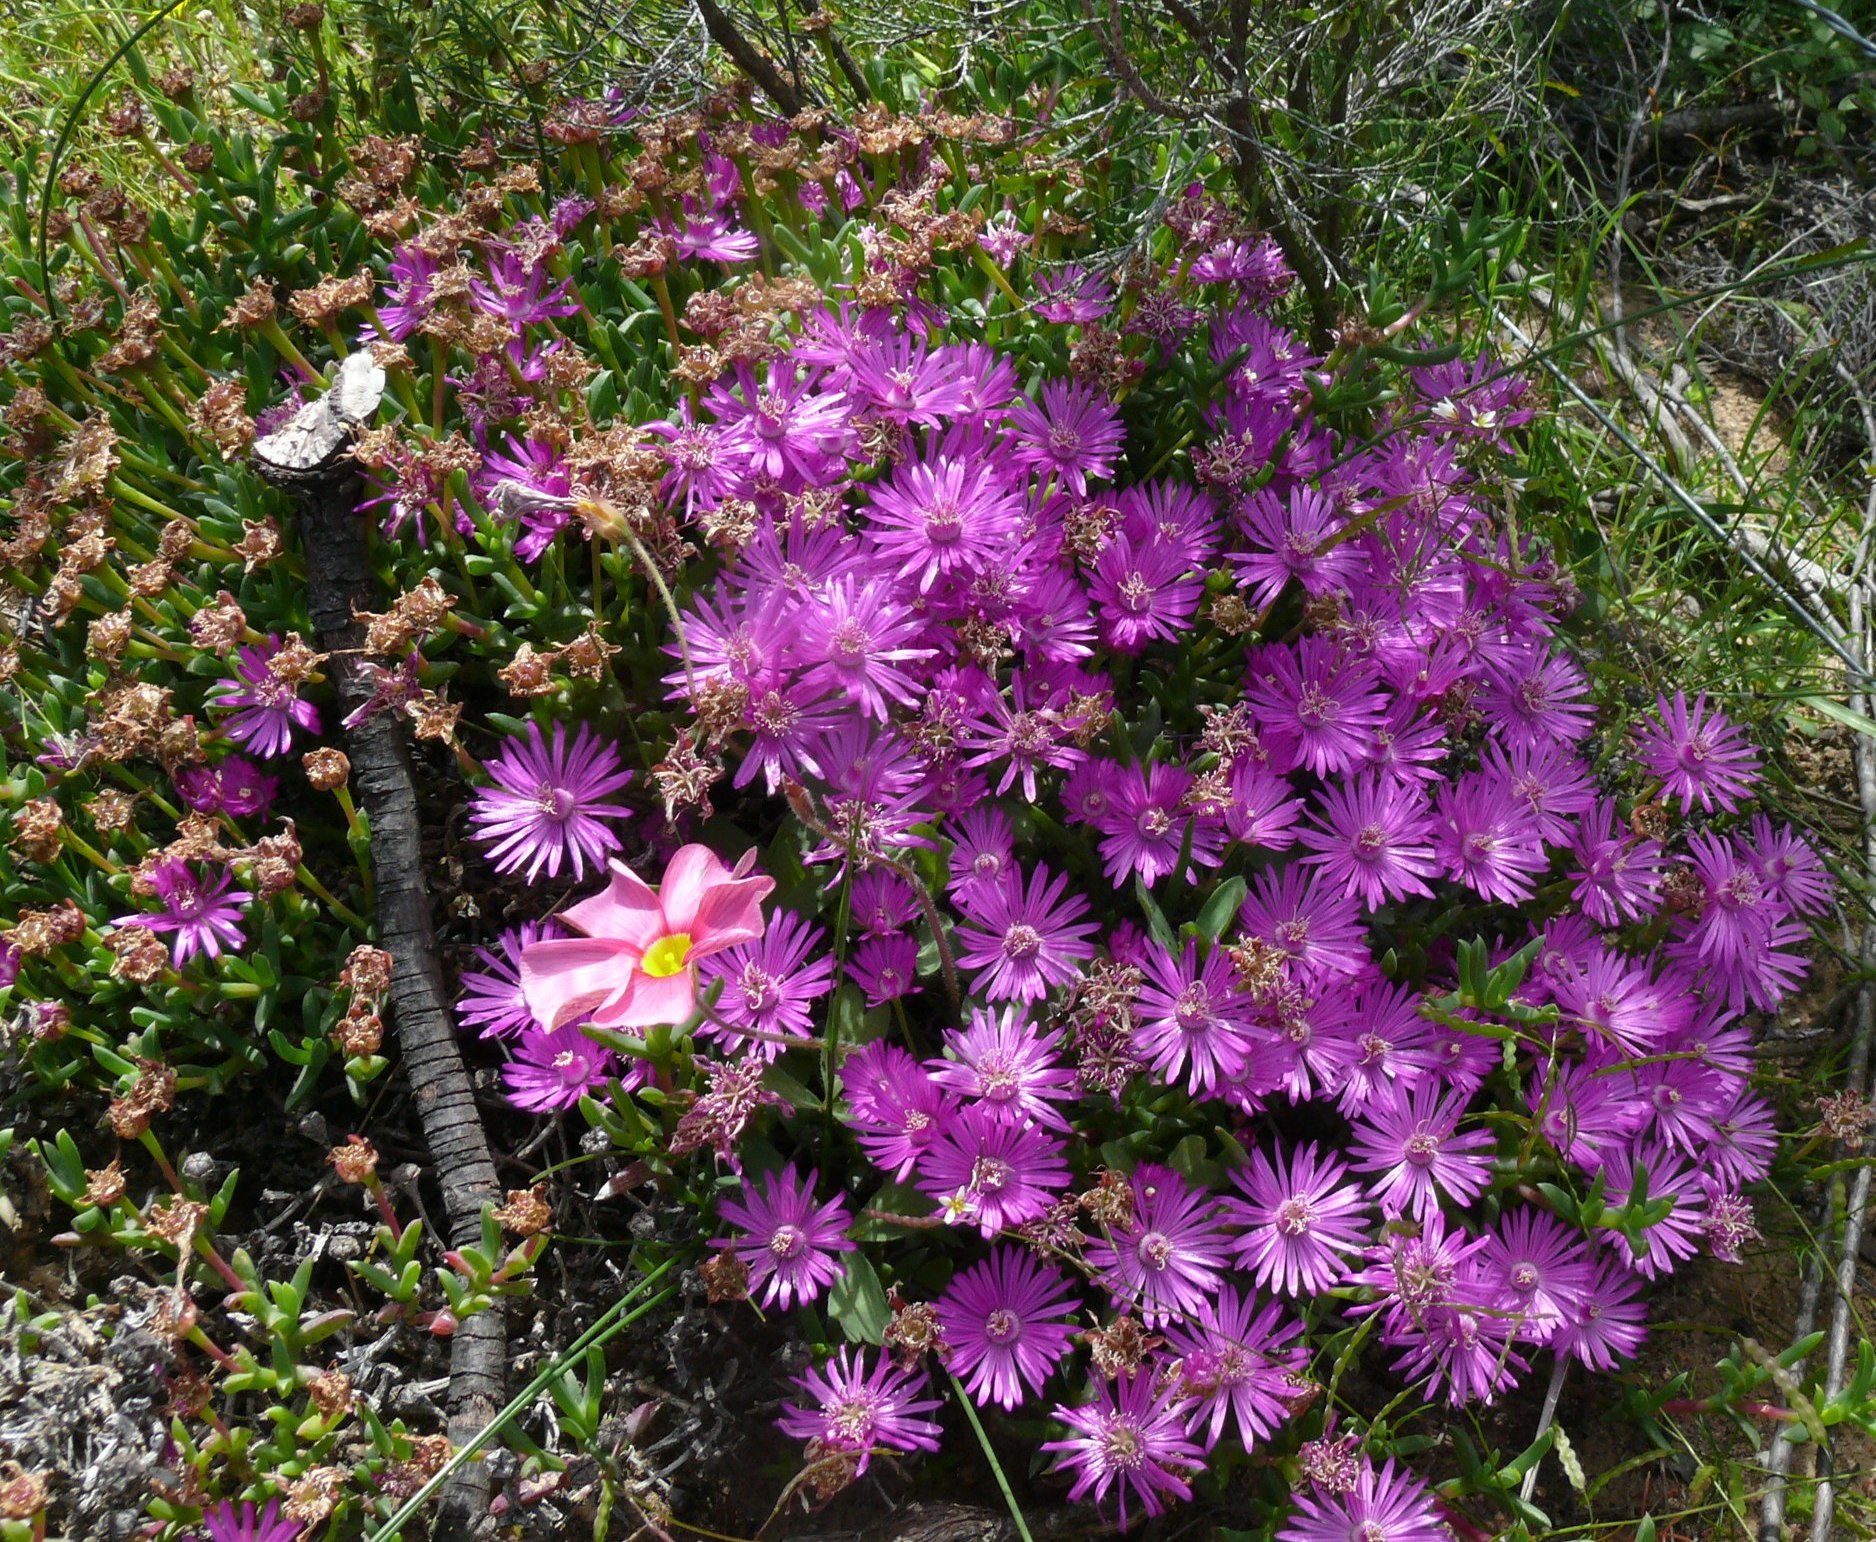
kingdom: Plantae
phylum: Tracheophyta
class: Magnoliopsida
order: Caryophyllales
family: Aizoaceae
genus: Ruschia
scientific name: Ruschia muiriana
